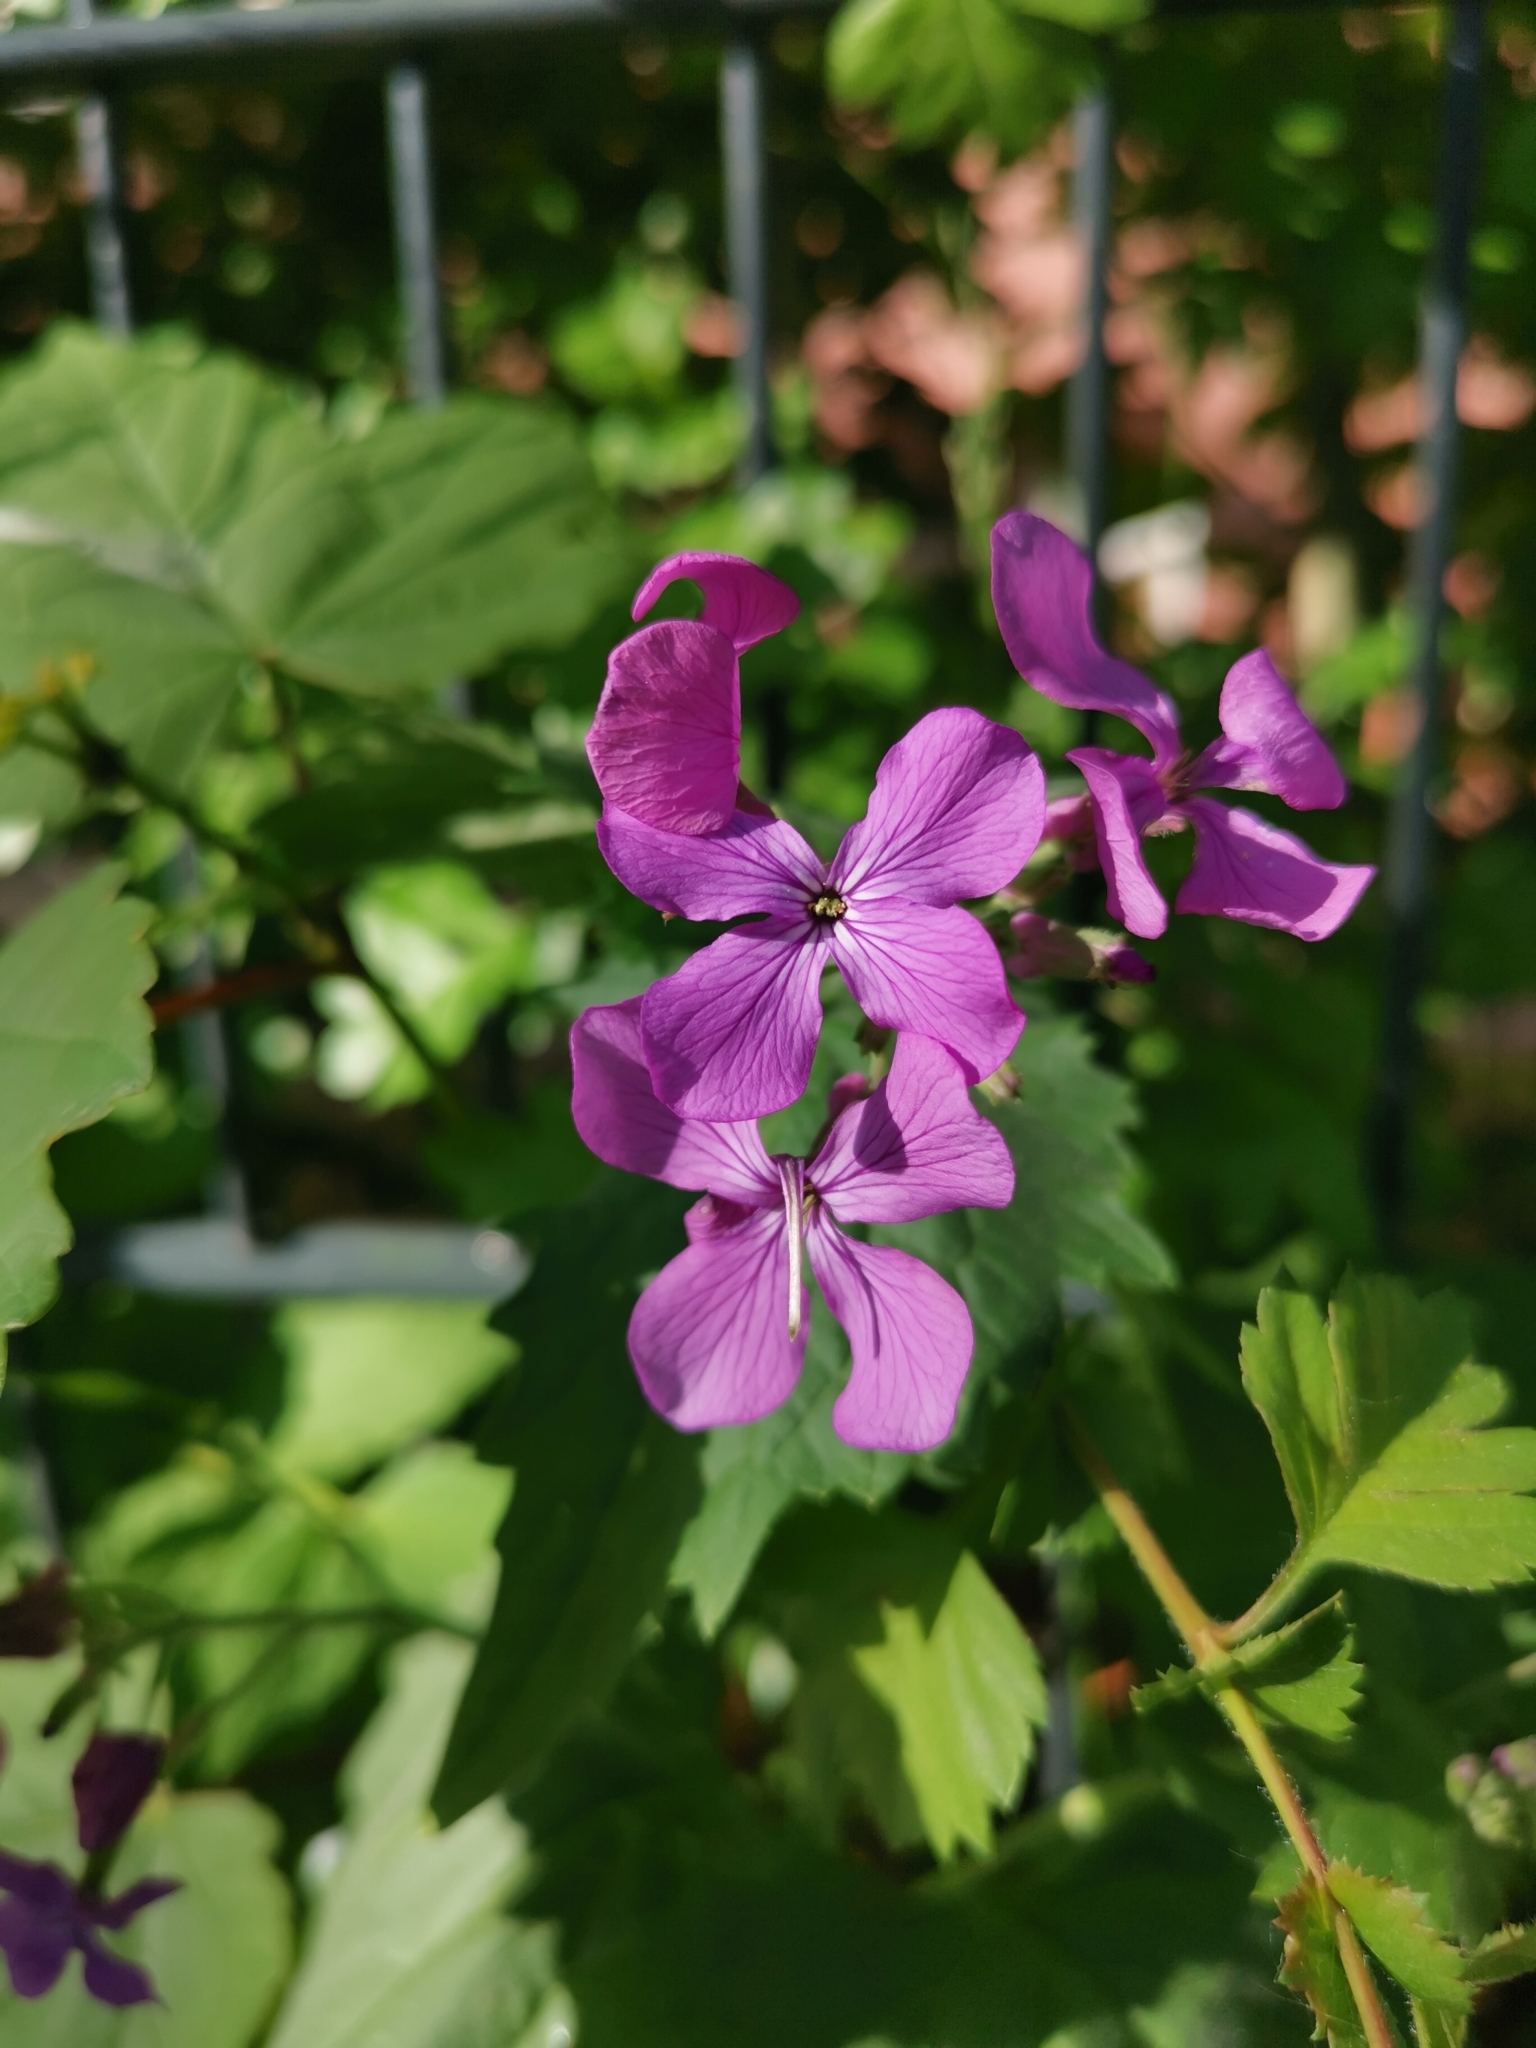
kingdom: Plantae
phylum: Tracheophyta
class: Magnoliopsida
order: Brassicales
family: Brassicaceae
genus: Lunaria
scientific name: Lunaria annua
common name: Honesty
